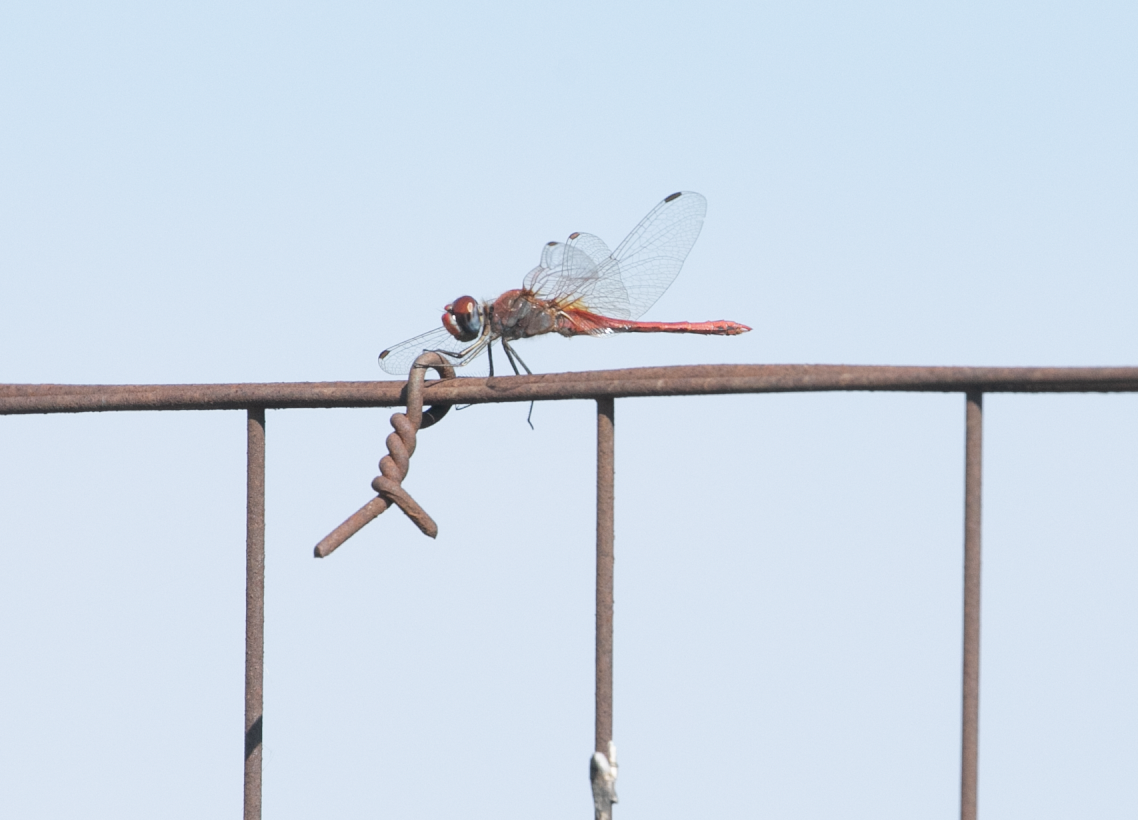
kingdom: Animalia
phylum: Arthropoda
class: Insecta
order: Odonata
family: Libellulidae
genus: Sympetrum
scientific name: Sympetrum fonscolombii
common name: Red-veined darter
